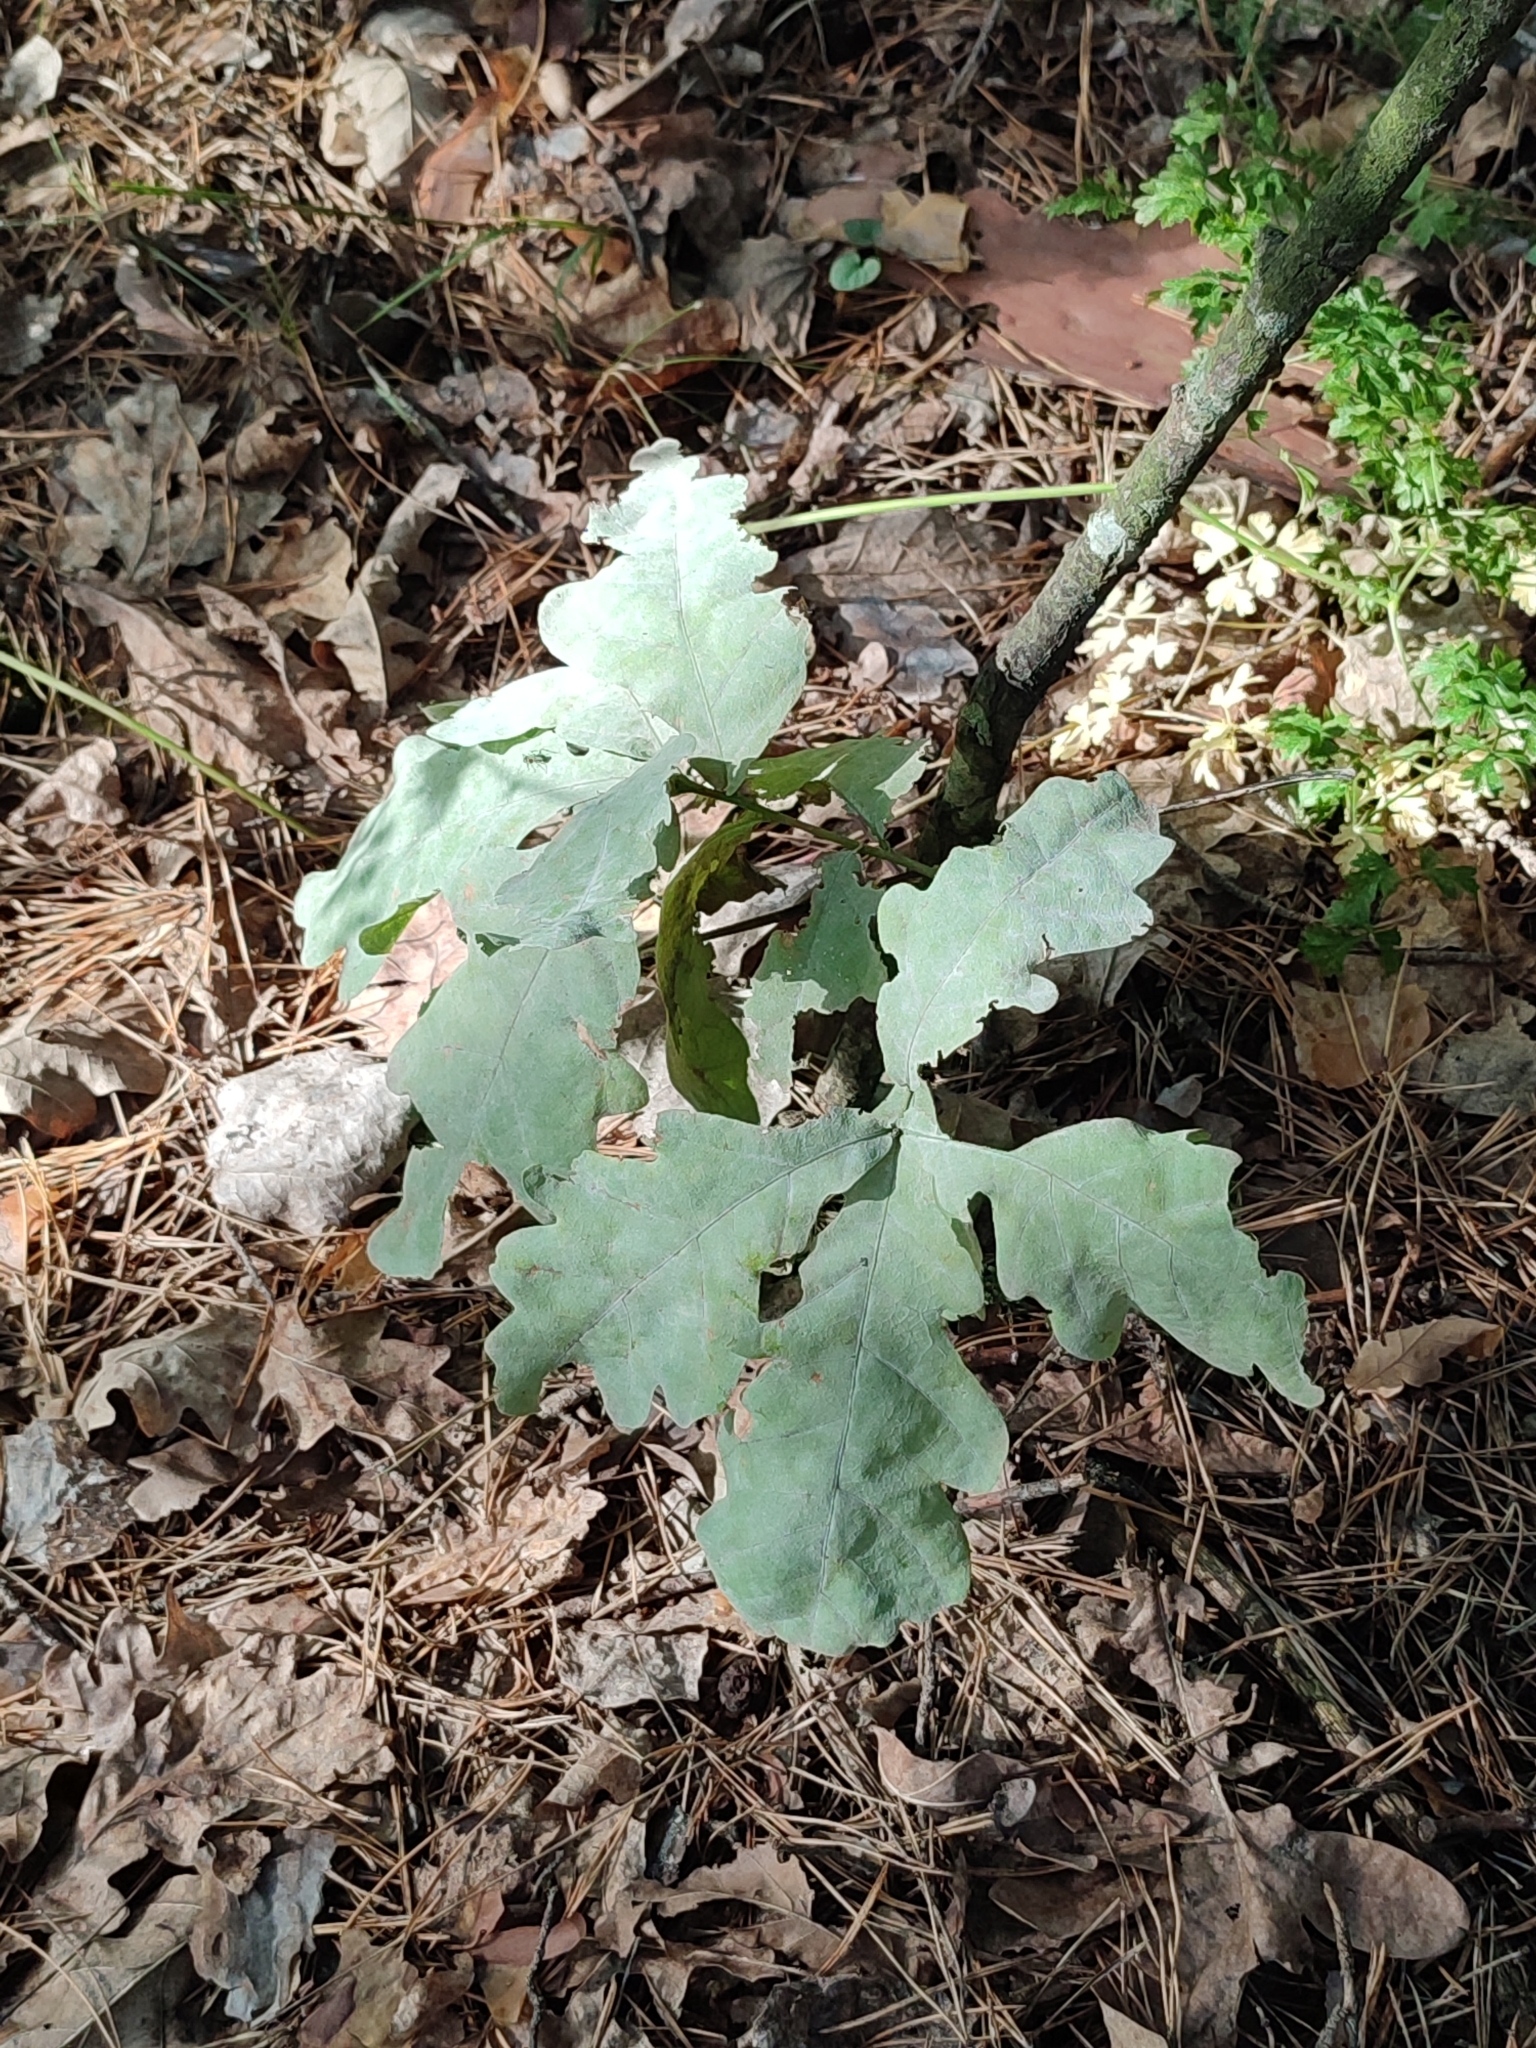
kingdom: Plantae
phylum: Tracheophyta
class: Magnoliopsida
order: Fagales
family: Fagaceae
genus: Quercus
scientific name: Quercus robur
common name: Pedunculate oak
